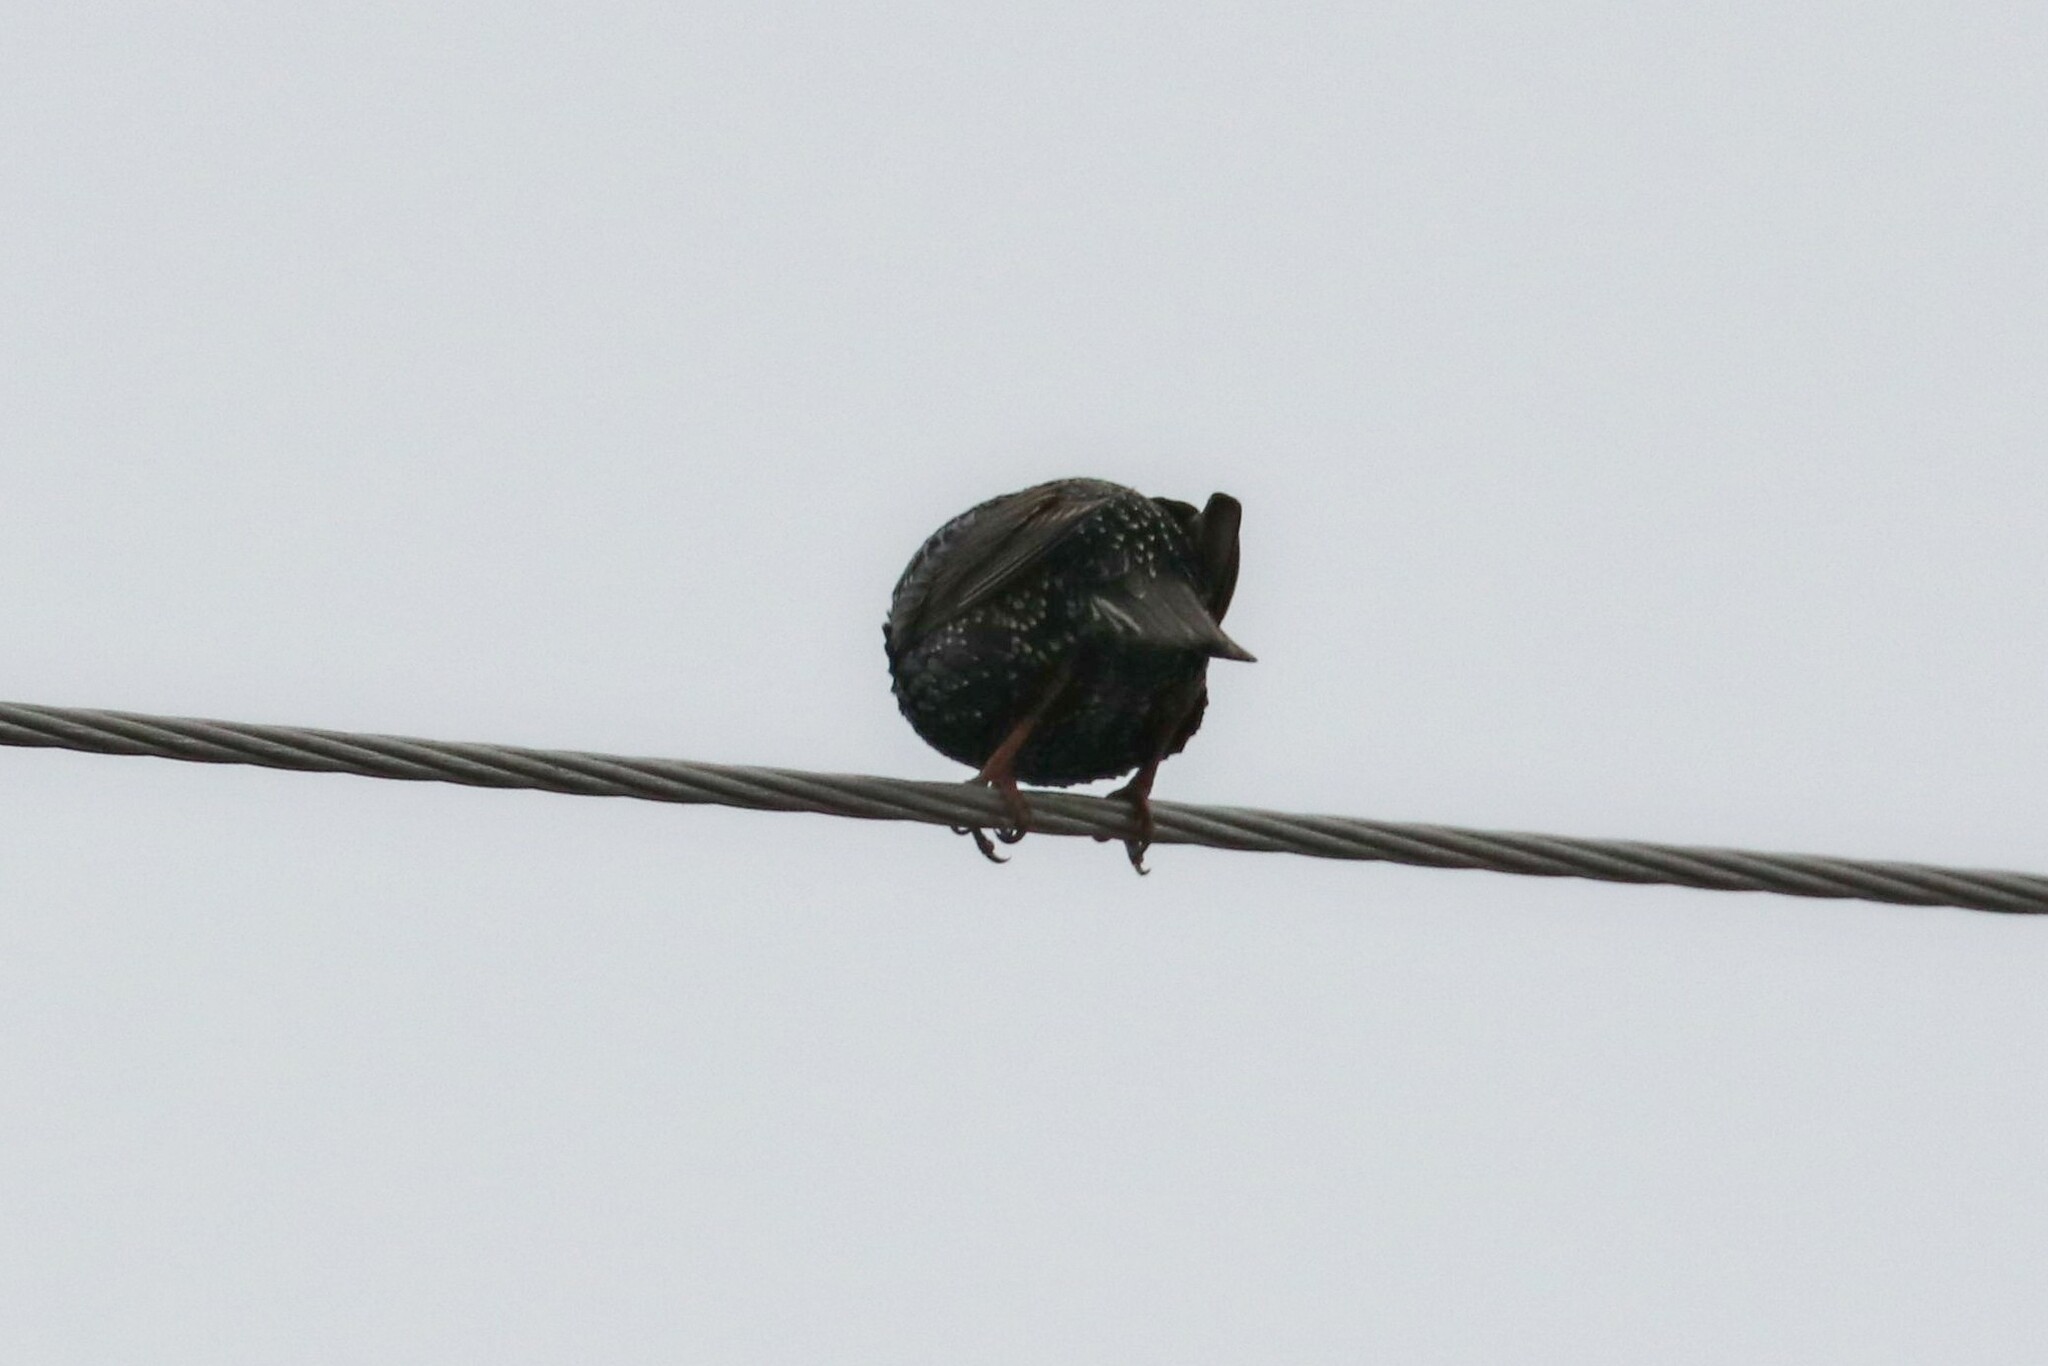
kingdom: Animalia
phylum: Chordata
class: Aves
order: Passeriformes
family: Sturnidae
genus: Sturnus
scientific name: Sturnus vulgaris
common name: Common starling
